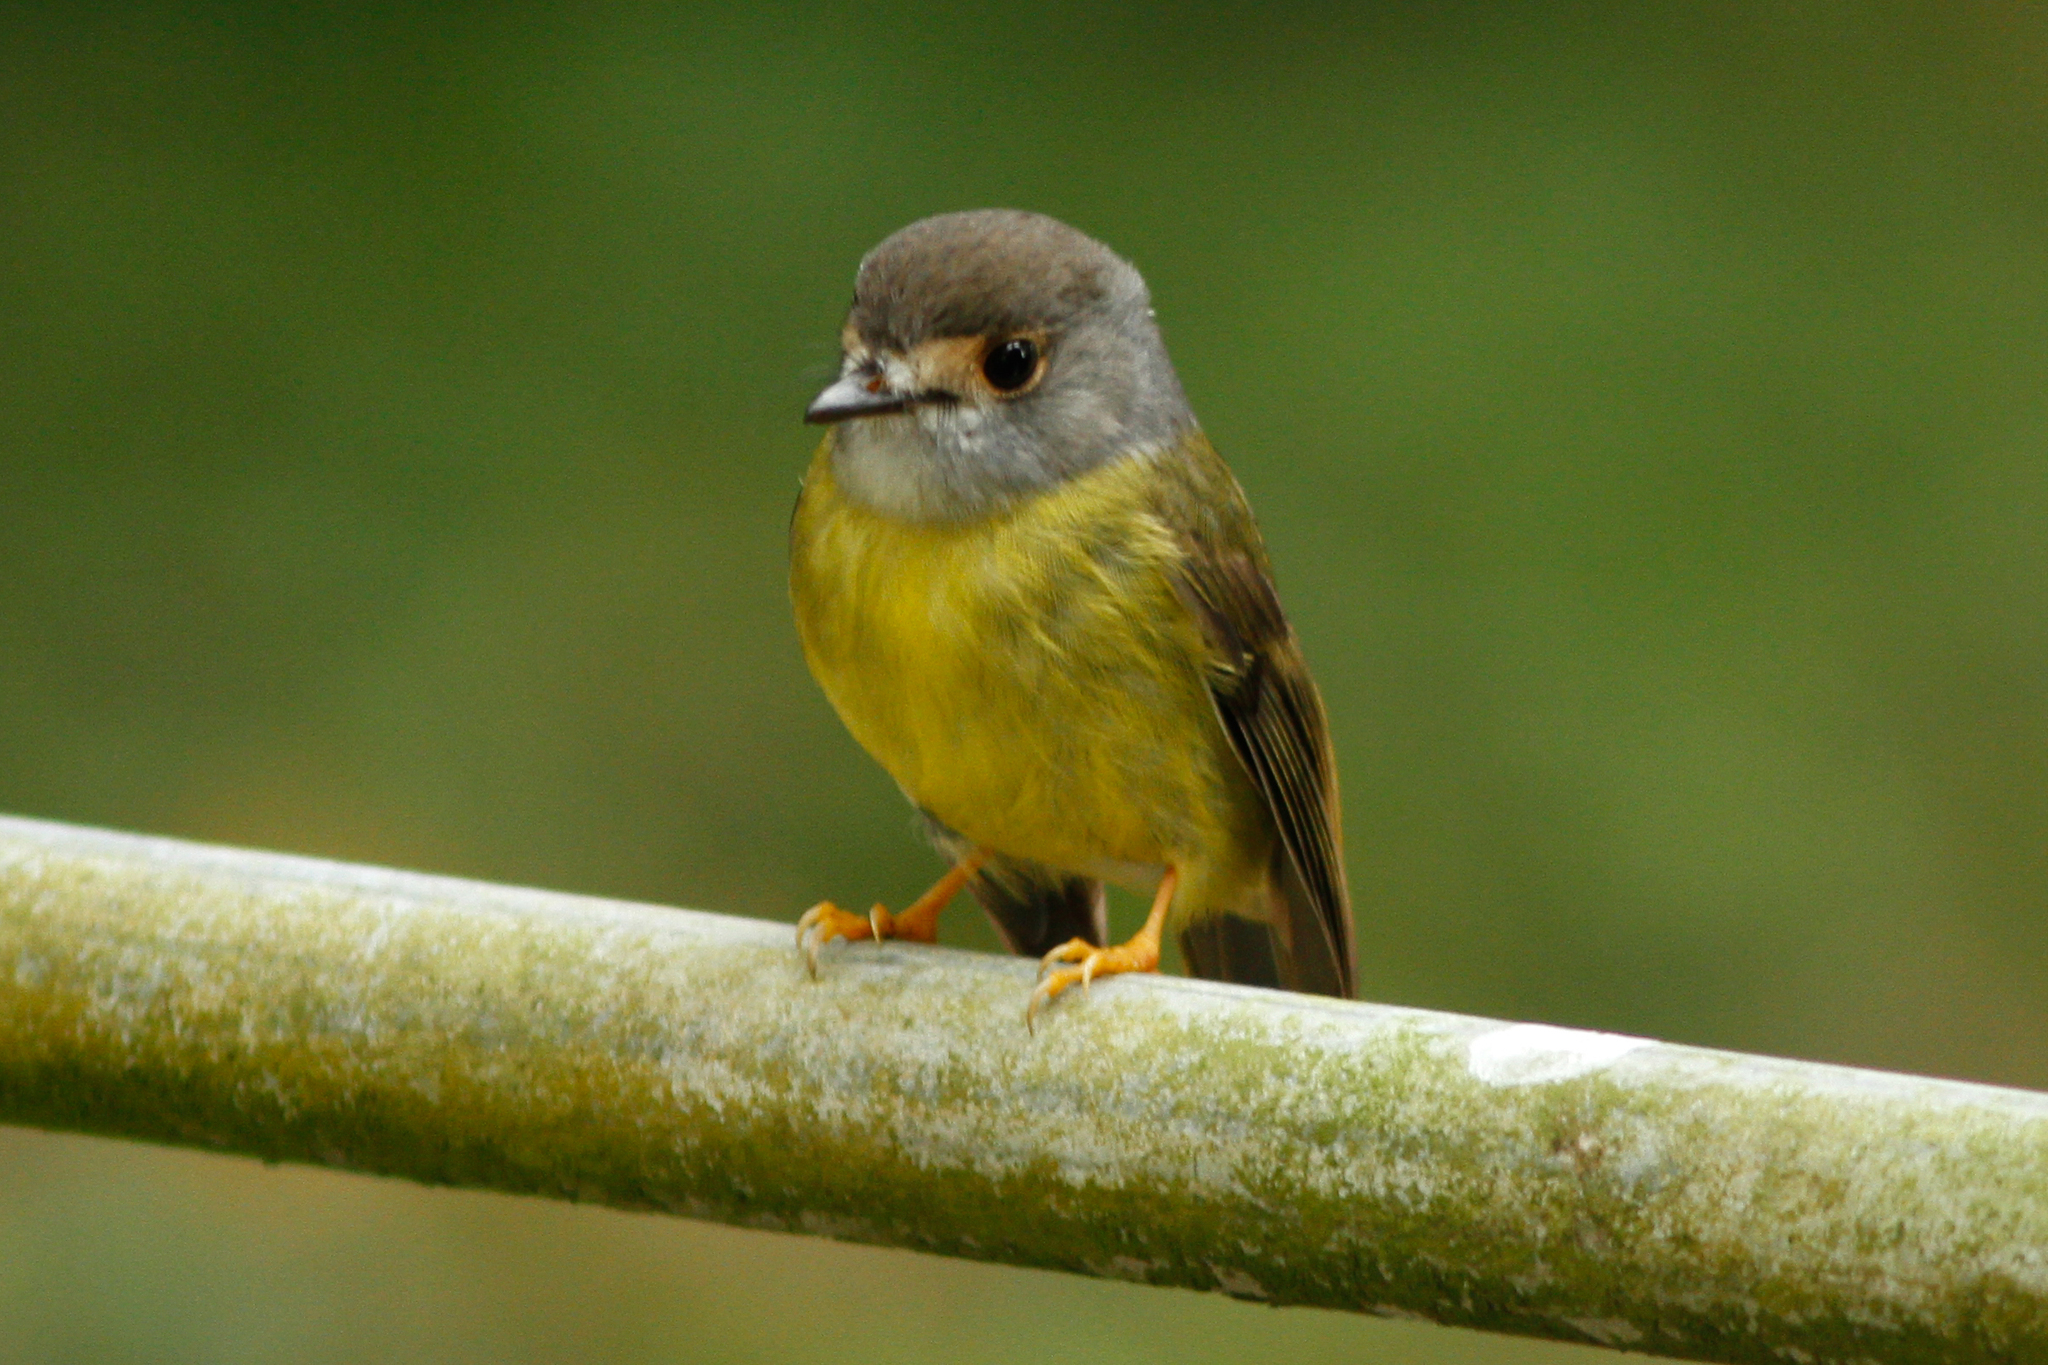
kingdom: Animalia
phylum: Chordata
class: Aves
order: Passeriformes
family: Petroicidae
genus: Eopsaltria
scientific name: Eopsaltria
